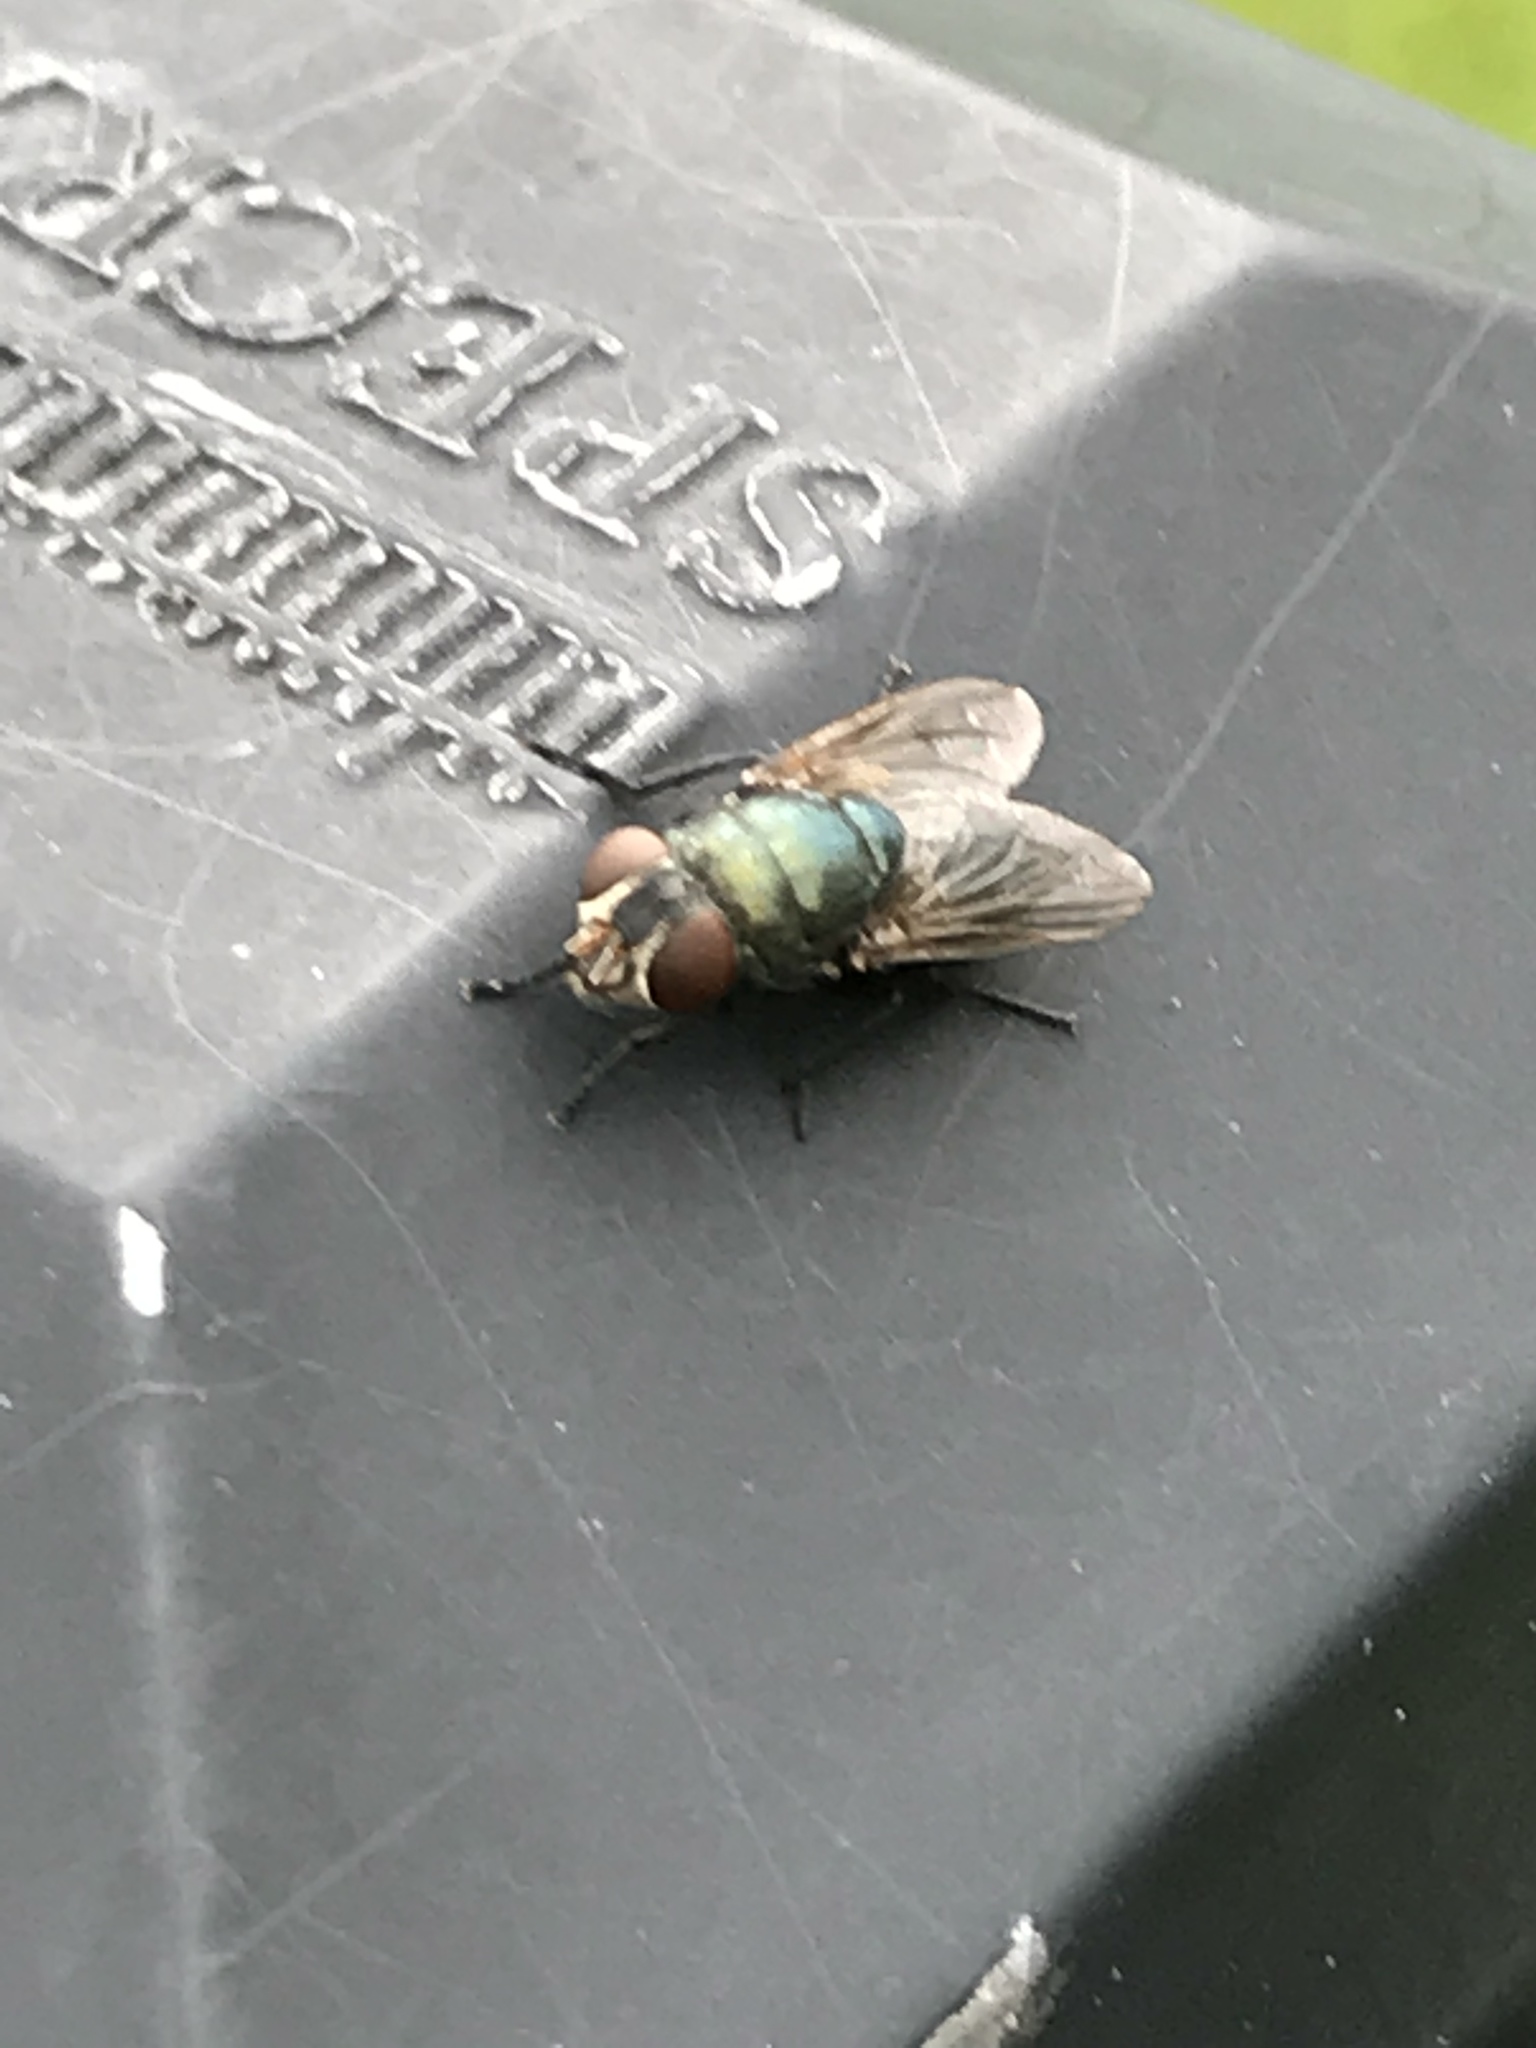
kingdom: Animalia
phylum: Arthropoda
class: Insecta
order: Diptera
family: Calliphoridae
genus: Phormia
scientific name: Phormia regina
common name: Black blow fly
